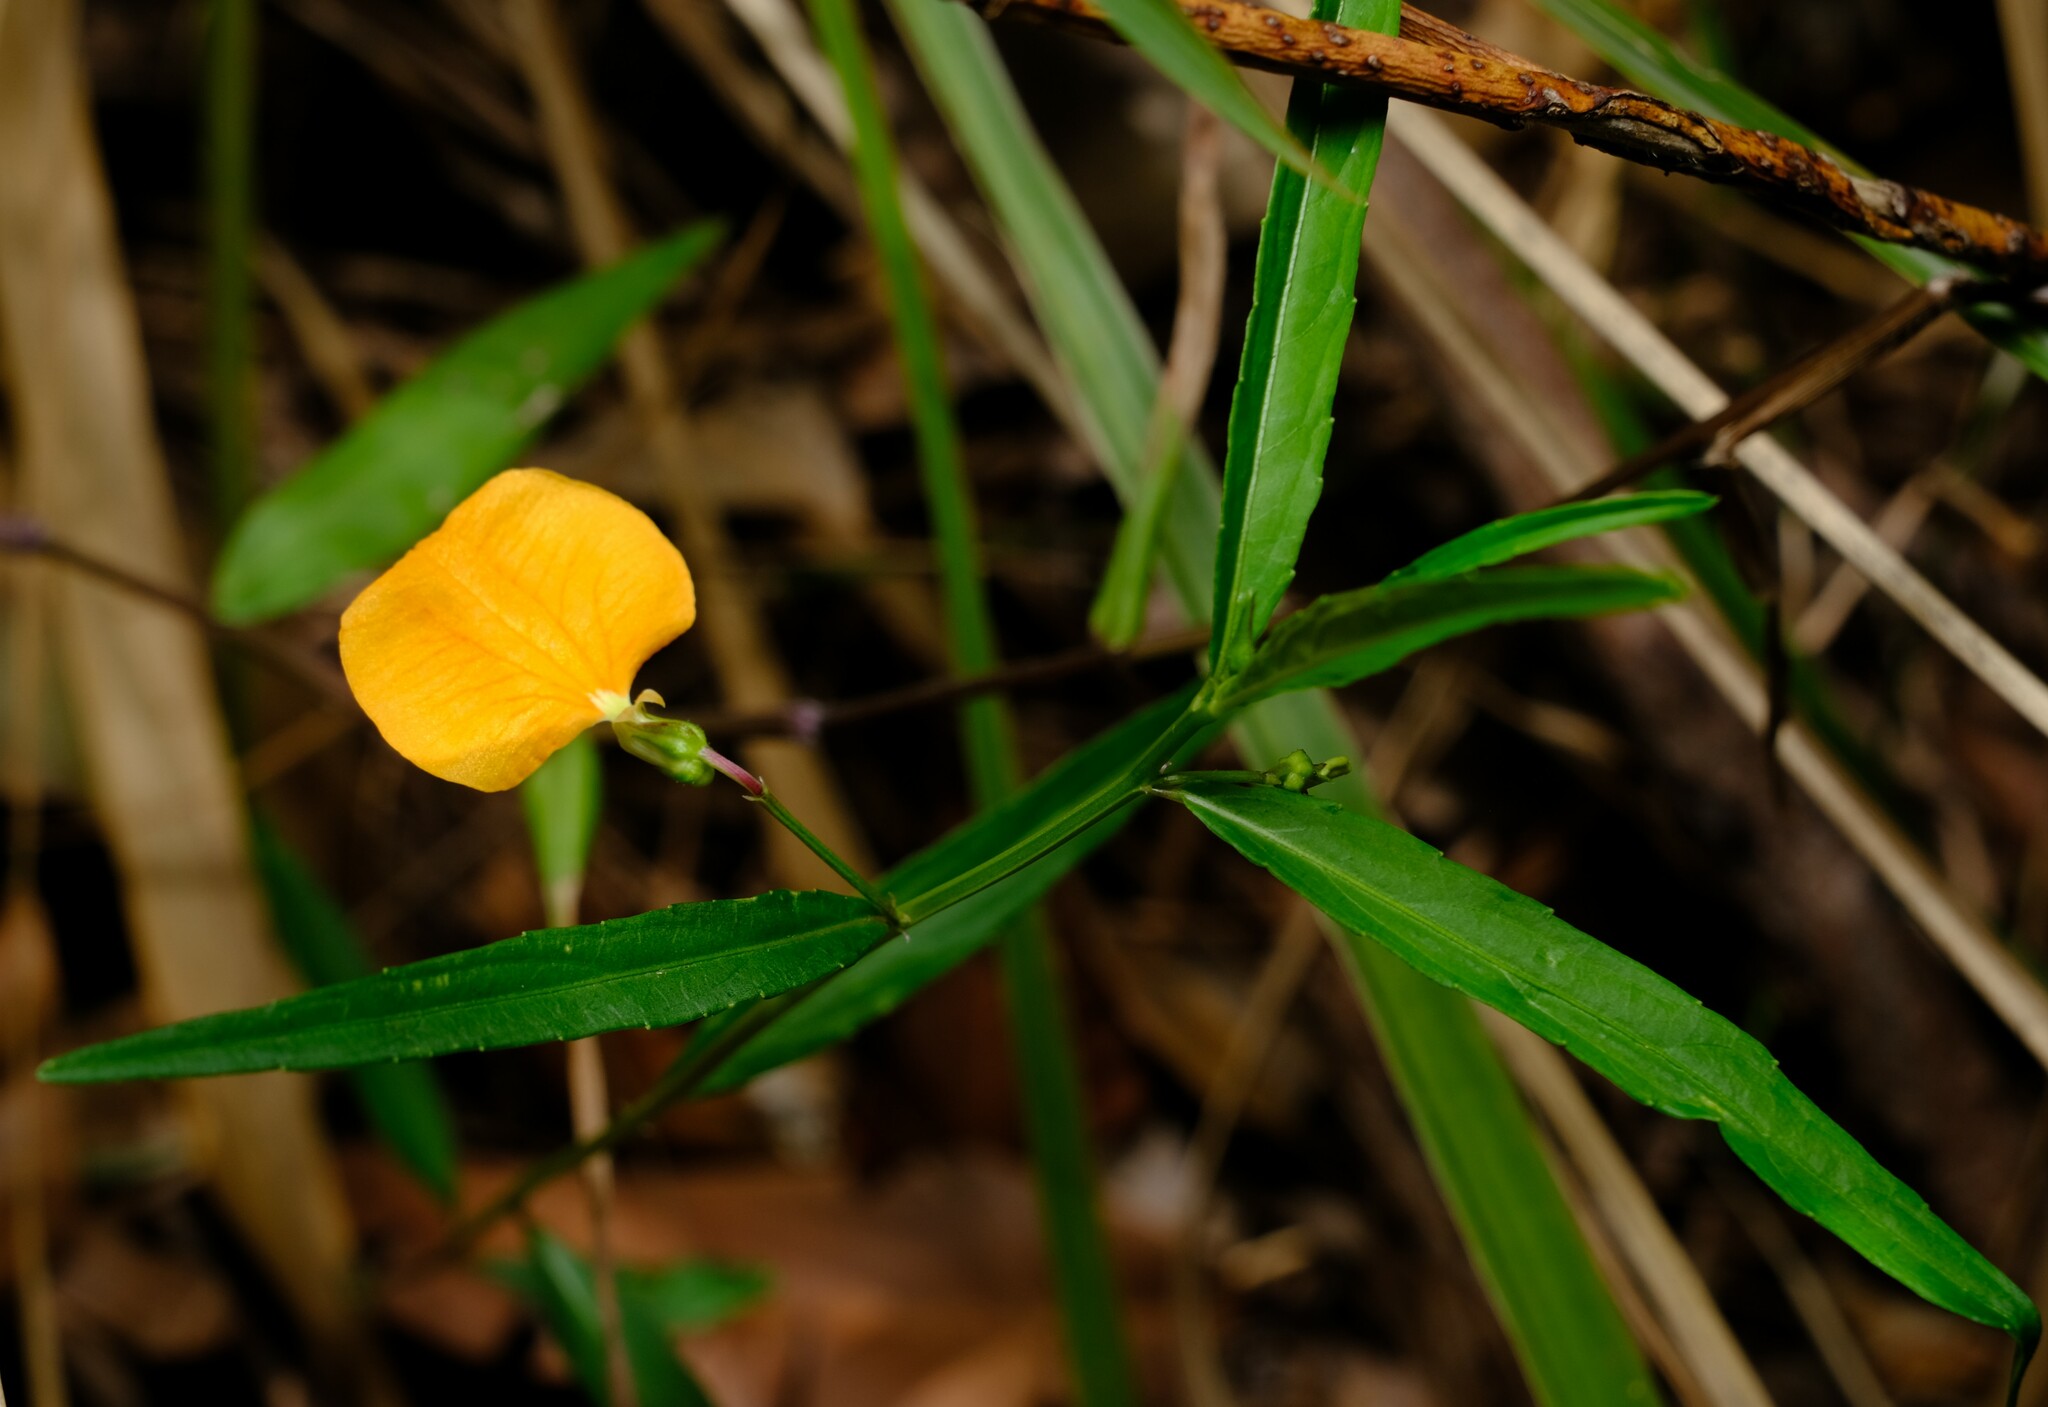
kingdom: Plantae
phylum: Tracheophyta
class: Magnoliopsida
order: Malpighiales
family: Violaceae
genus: Pigea
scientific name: Pigea stellarioides
